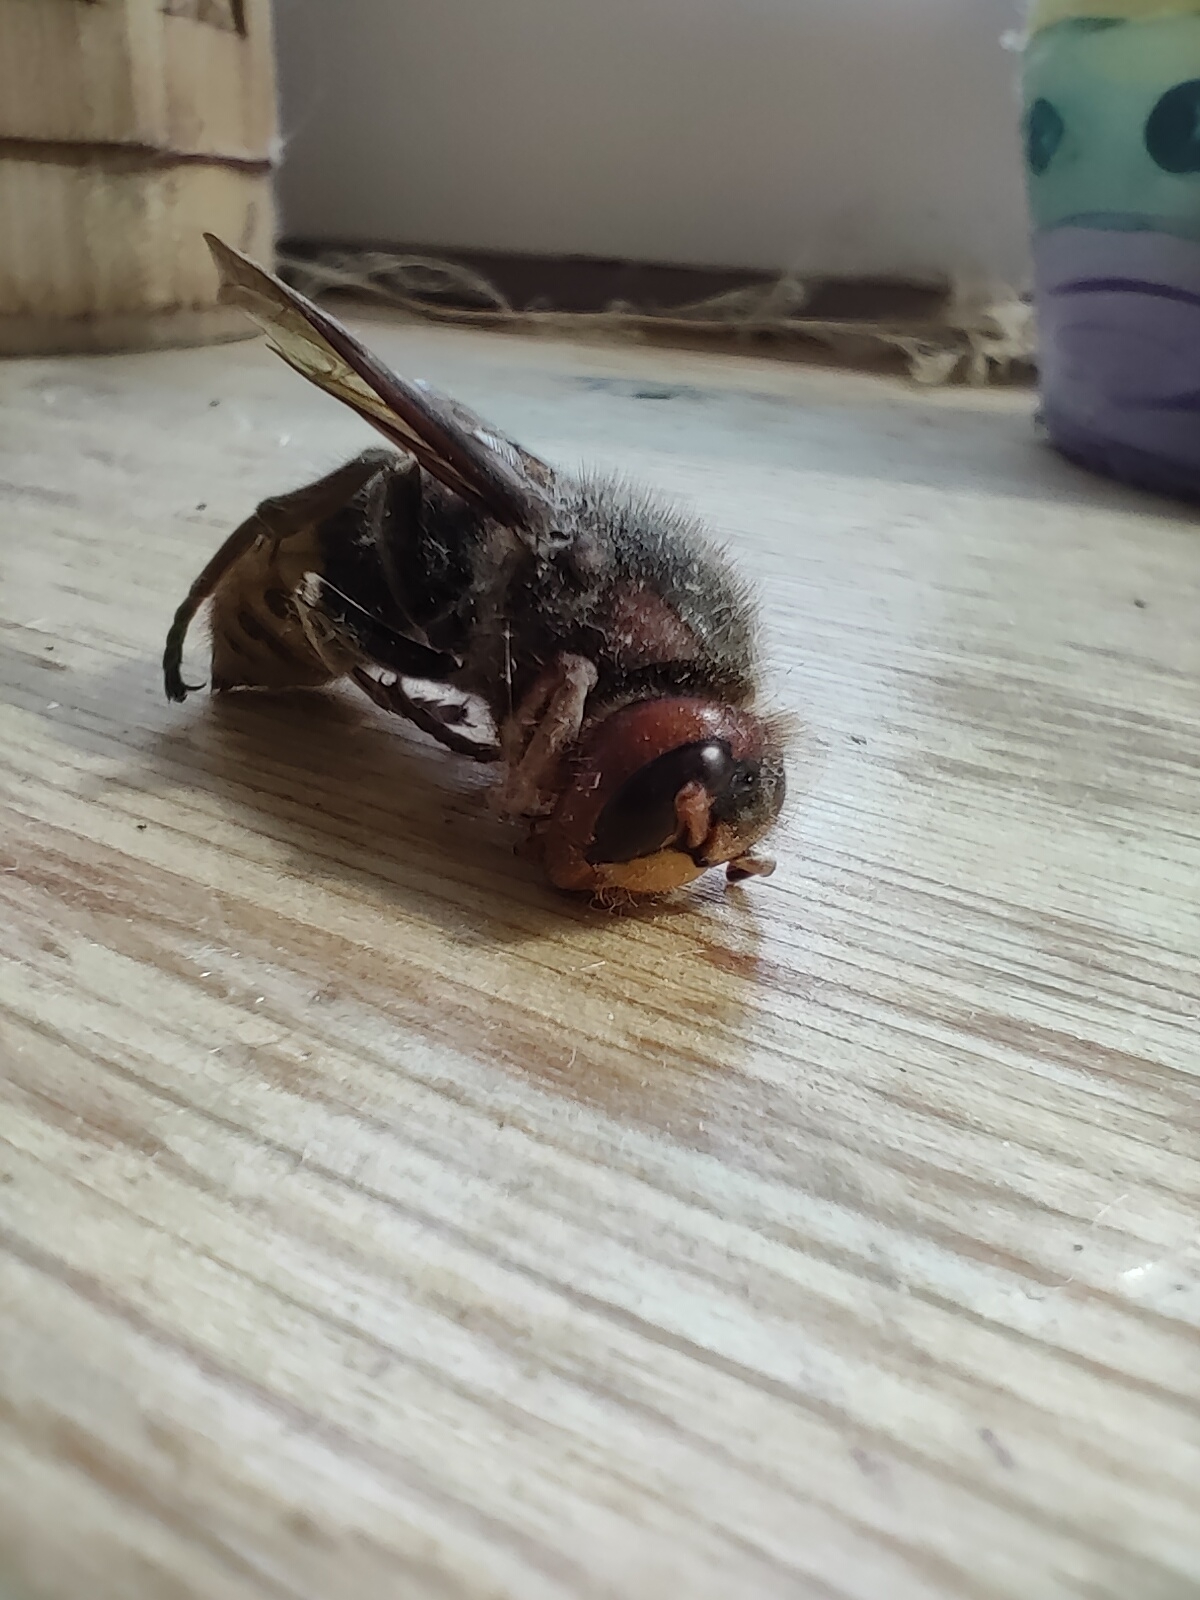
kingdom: Animalia
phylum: Arthropoda
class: Insecta
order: Hymenoptera
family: Vespidae
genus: Vespa
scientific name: Vespa crabro
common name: Hornet
